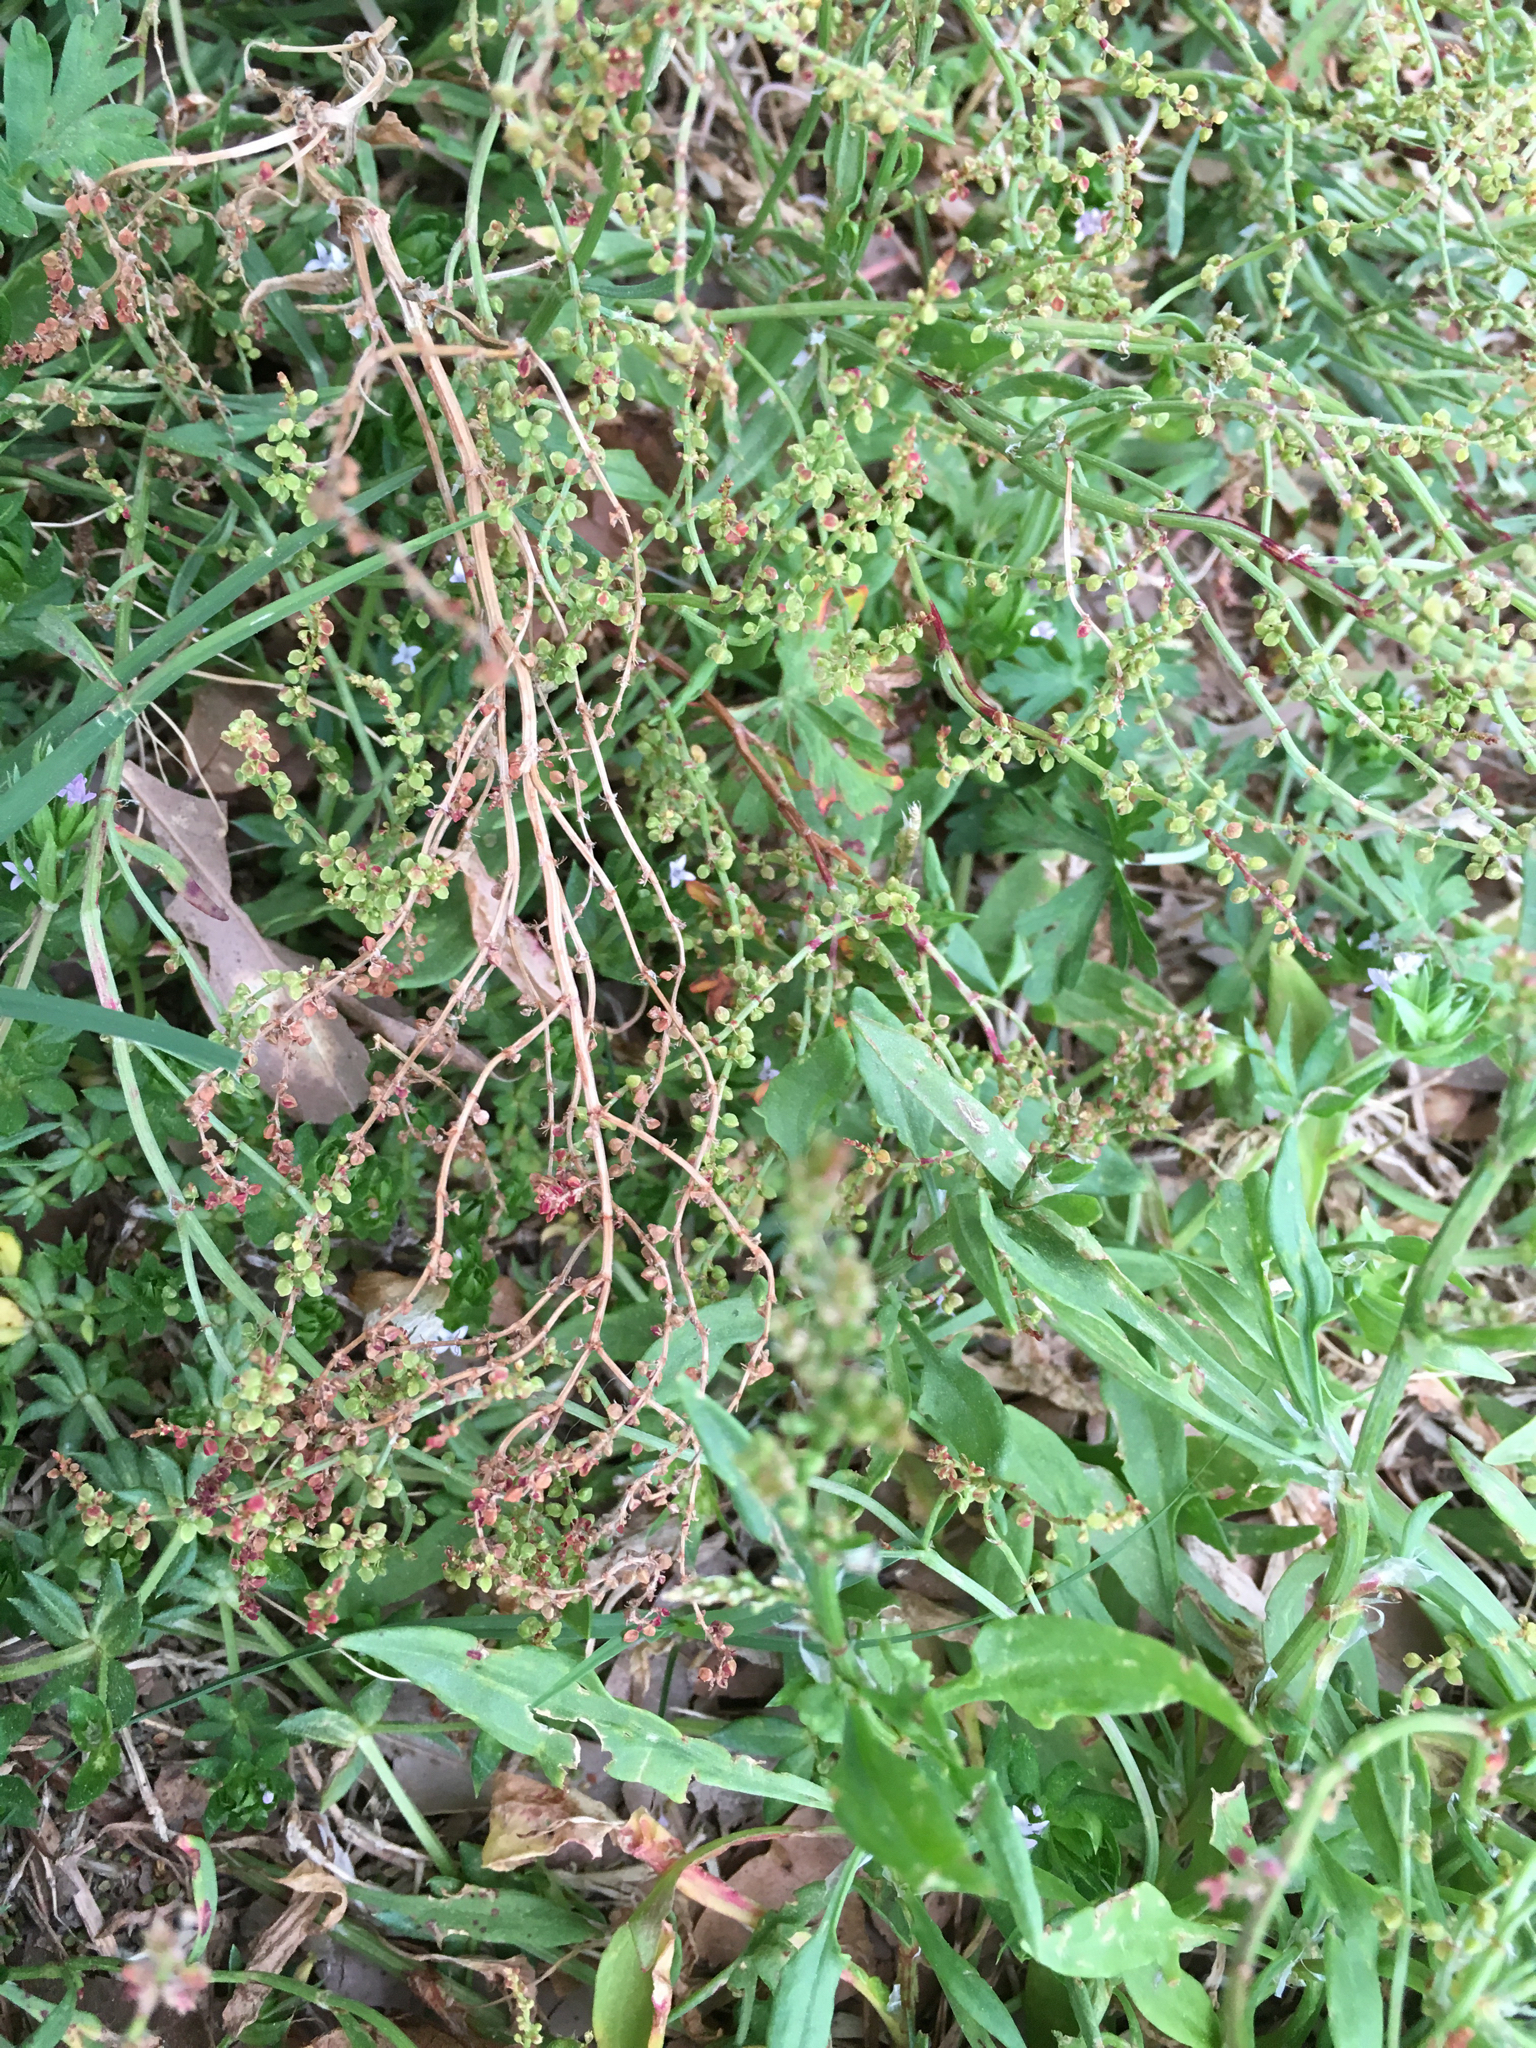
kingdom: Plantae
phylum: Tracheophyta
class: Magnoliopsida
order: Caryophyllales
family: Polygonaceae
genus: Rumex
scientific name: Rumex acetosella
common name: Common sheep sorrel
